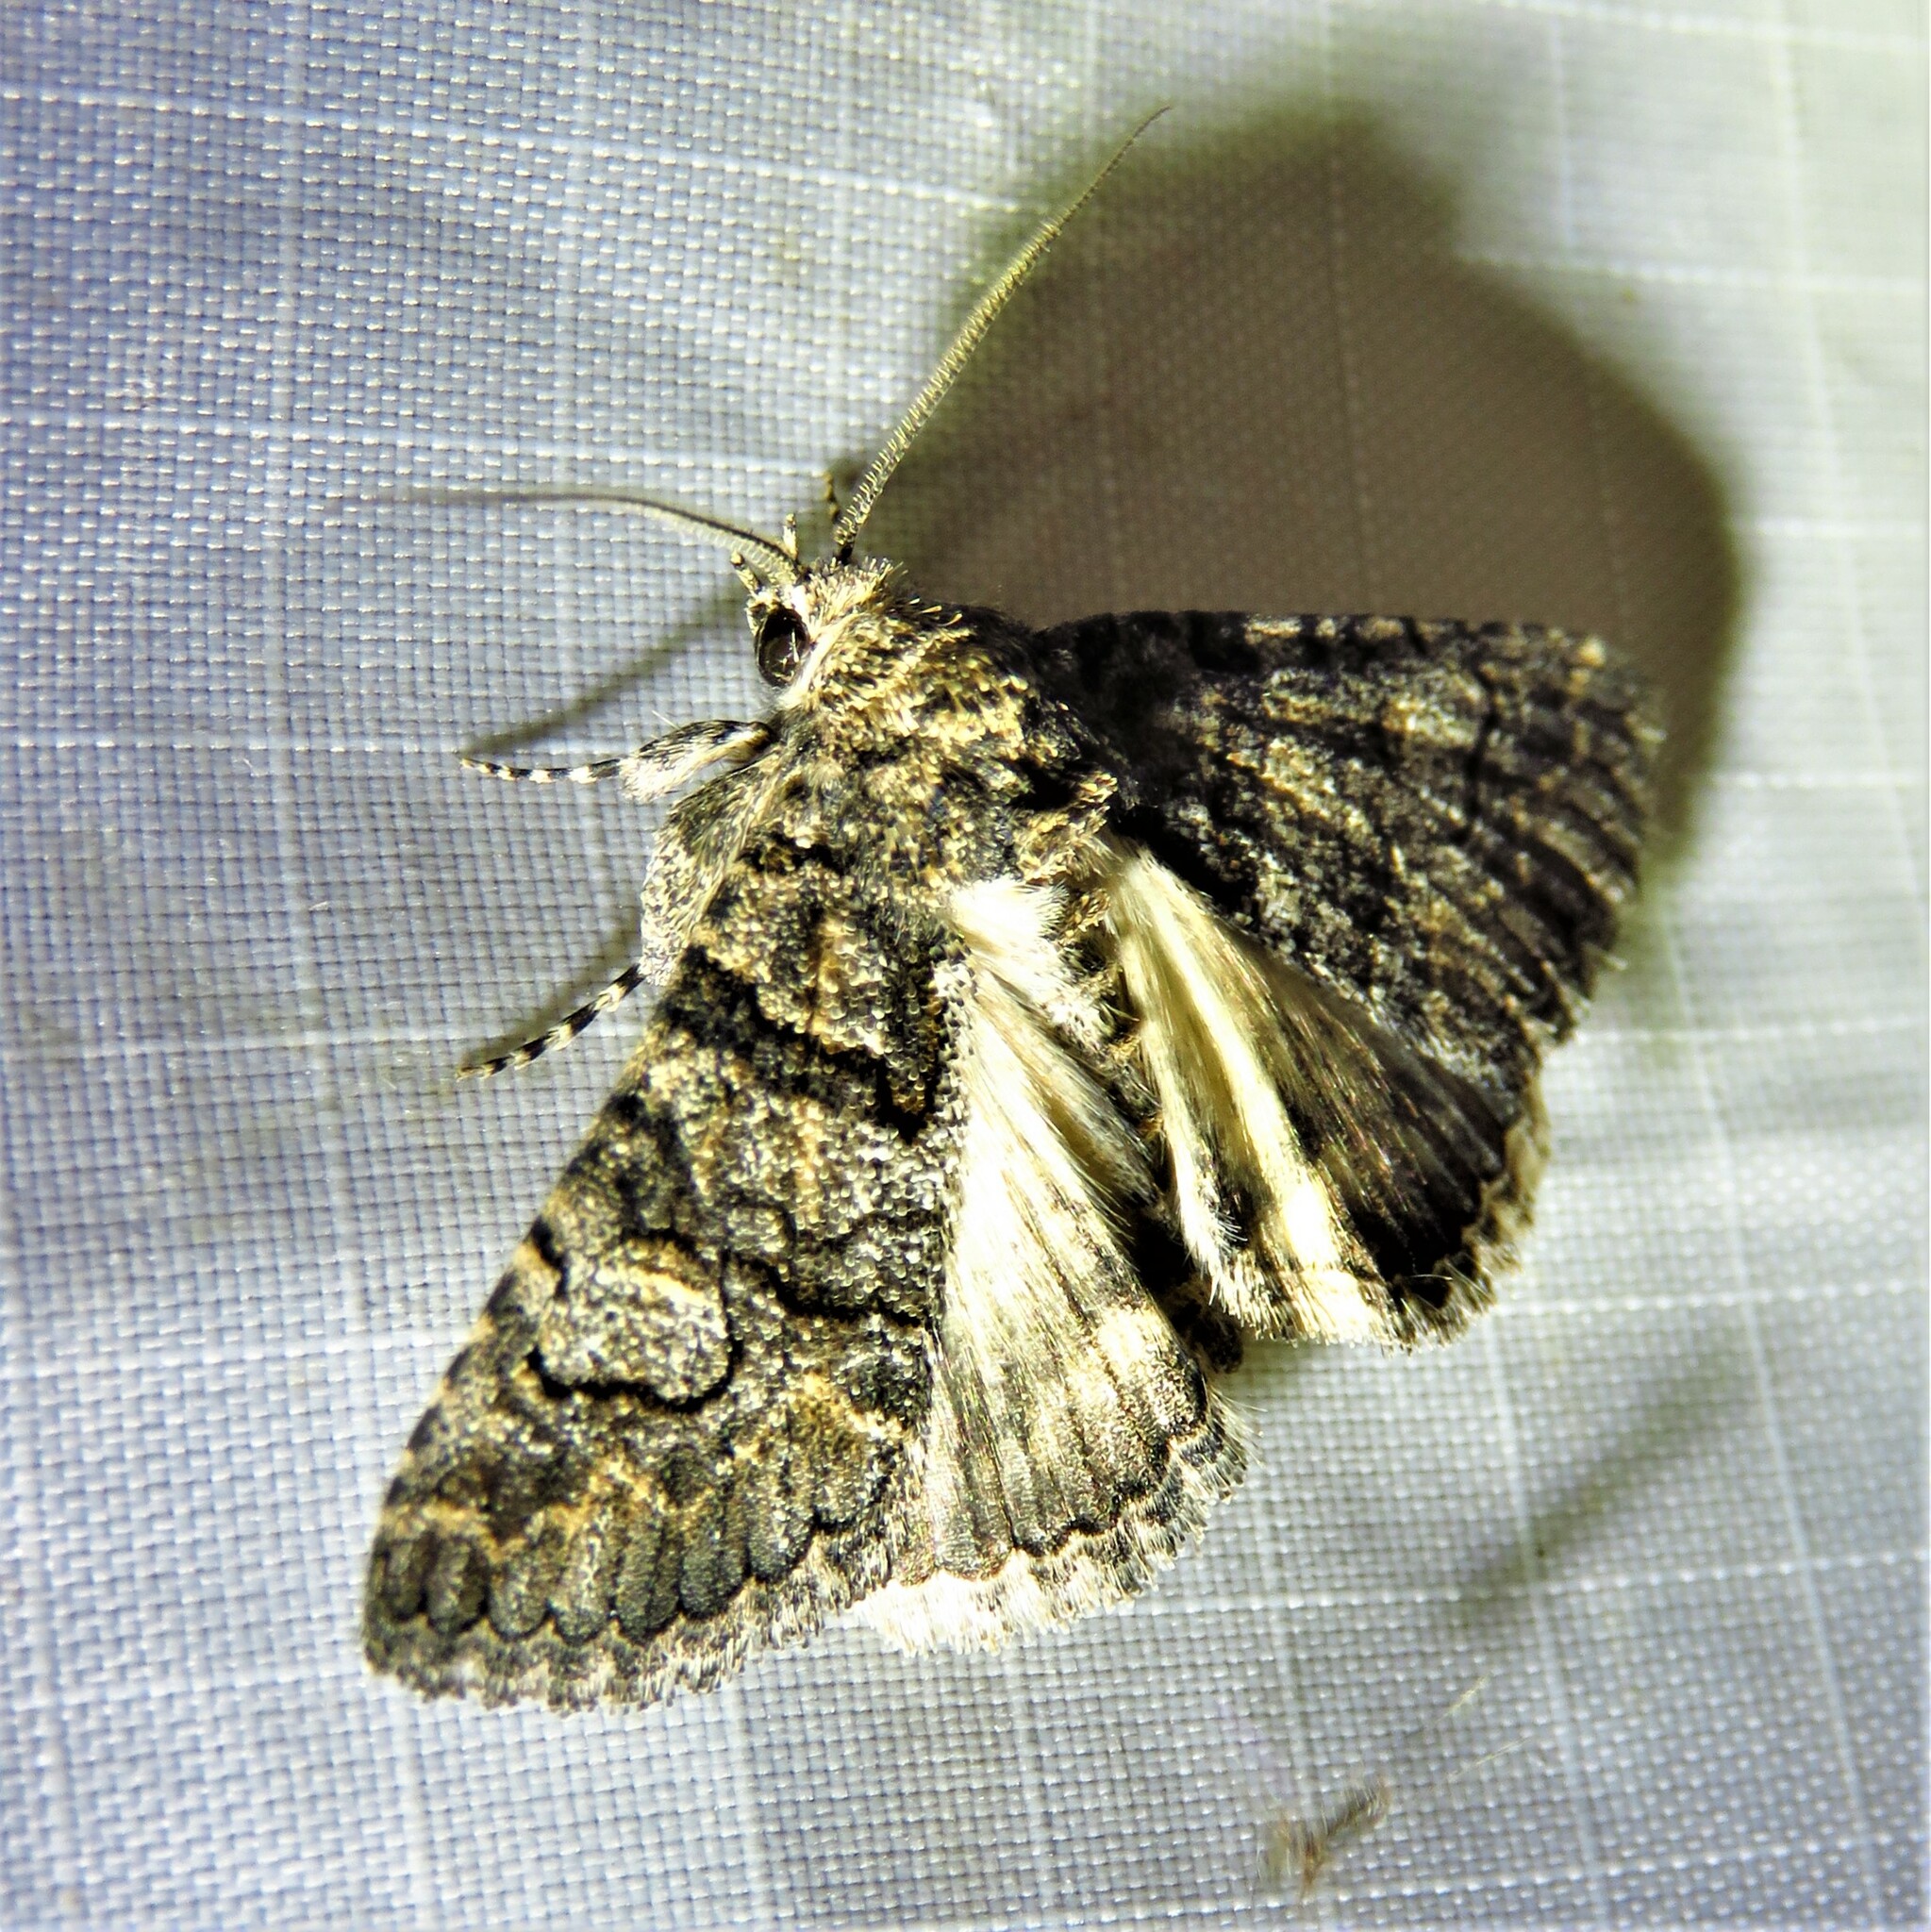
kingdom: Animalia
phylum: Arthropoda
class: Insecta
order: Lepidoptera
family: Erebidae
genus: Elousa
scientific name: Elousa mima
